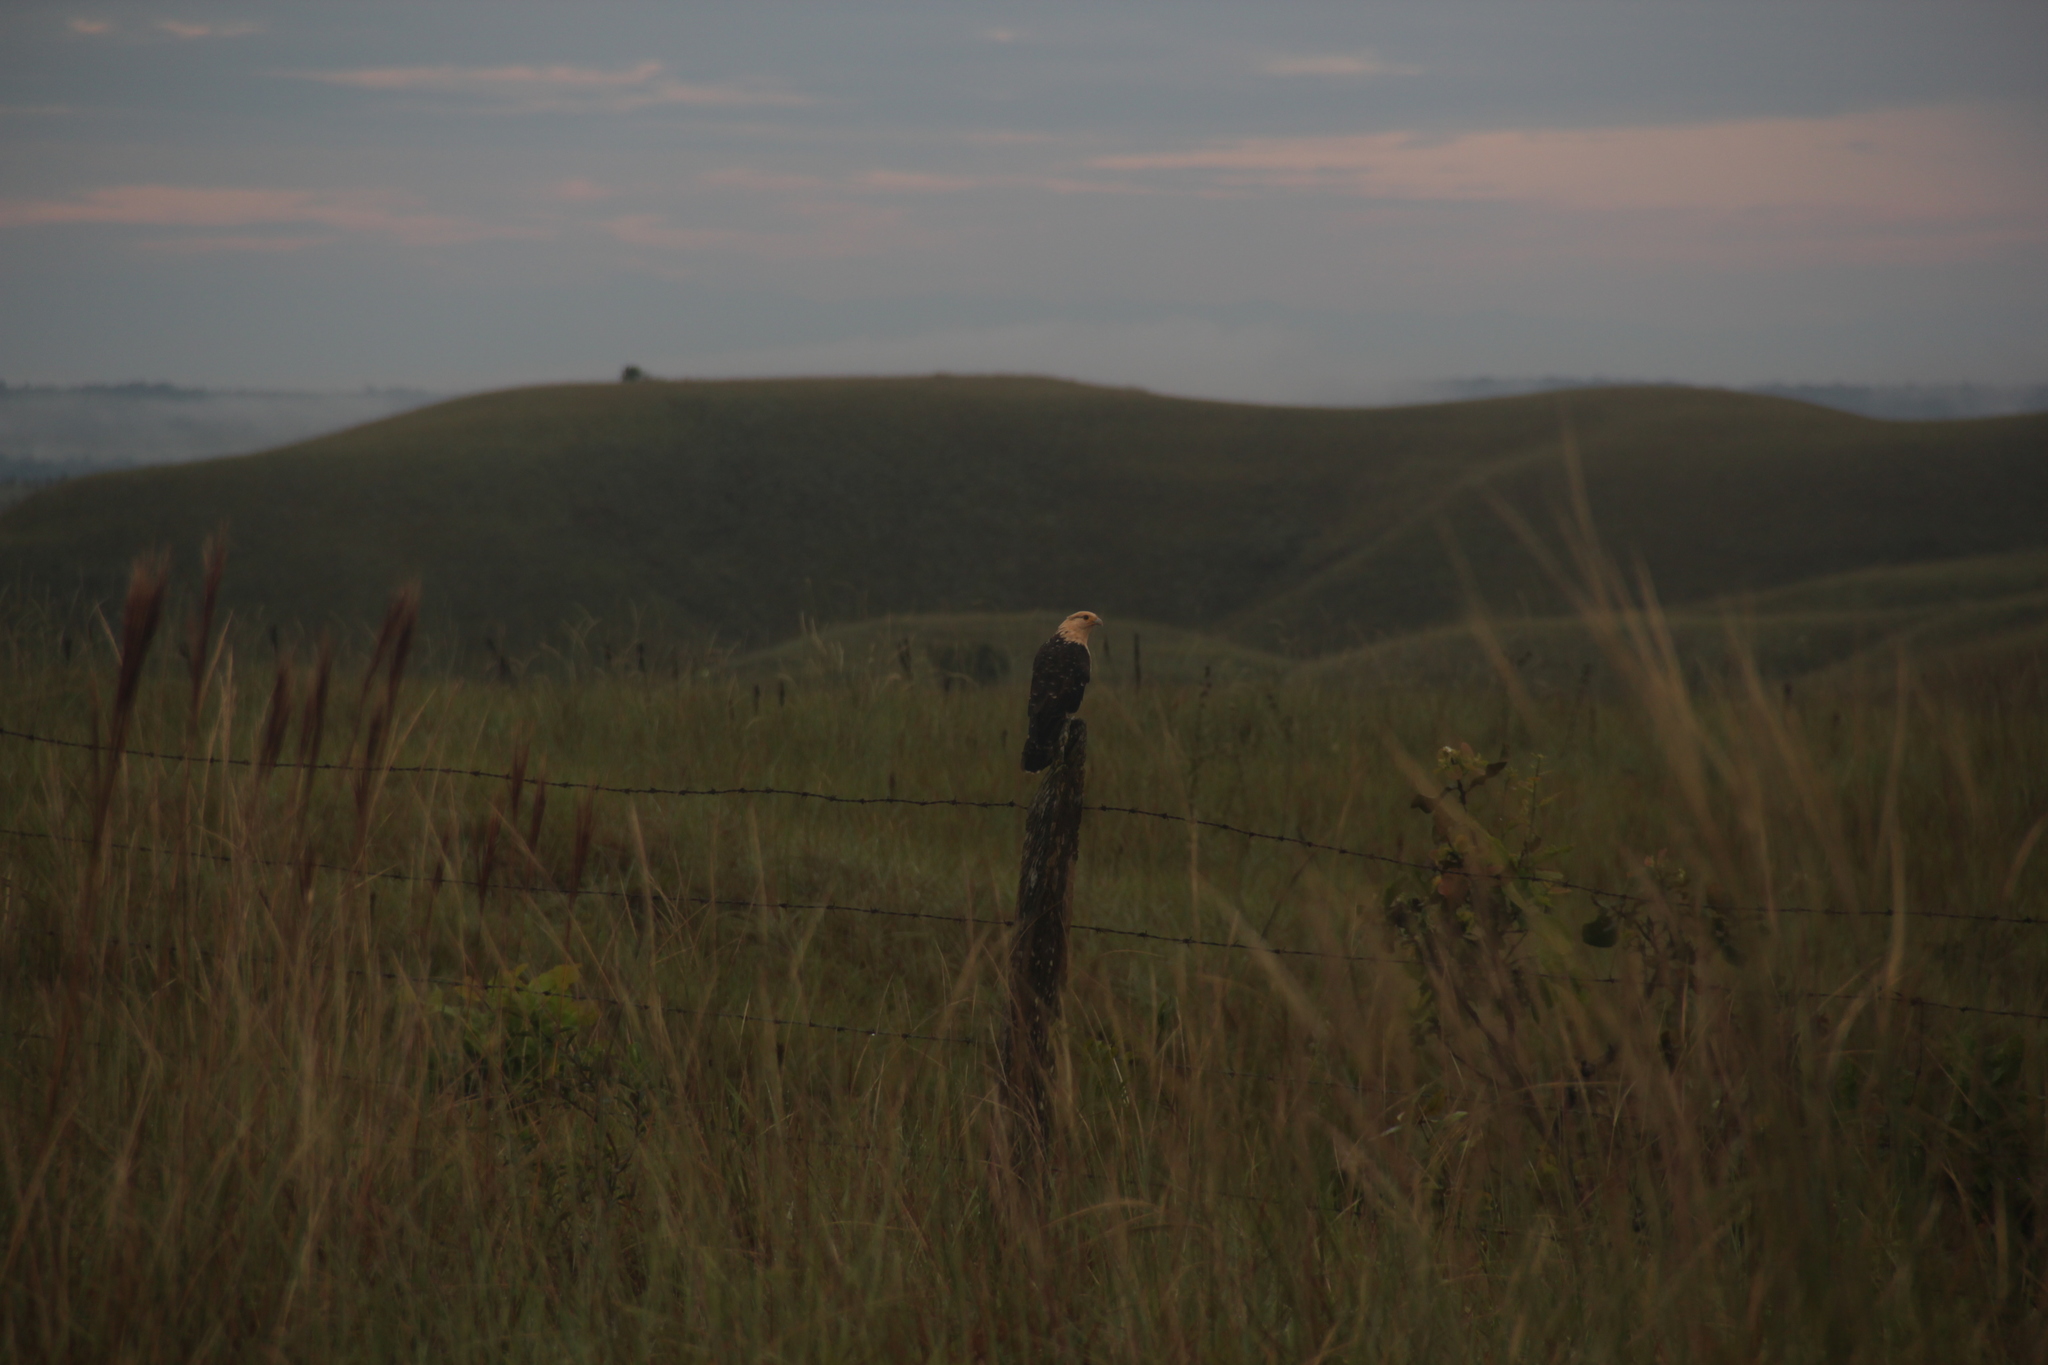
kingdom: Animalia
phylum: Chordata
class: Aves
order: Falconiformes
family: Falconidae
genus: Daptrius
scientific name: Daptrius
